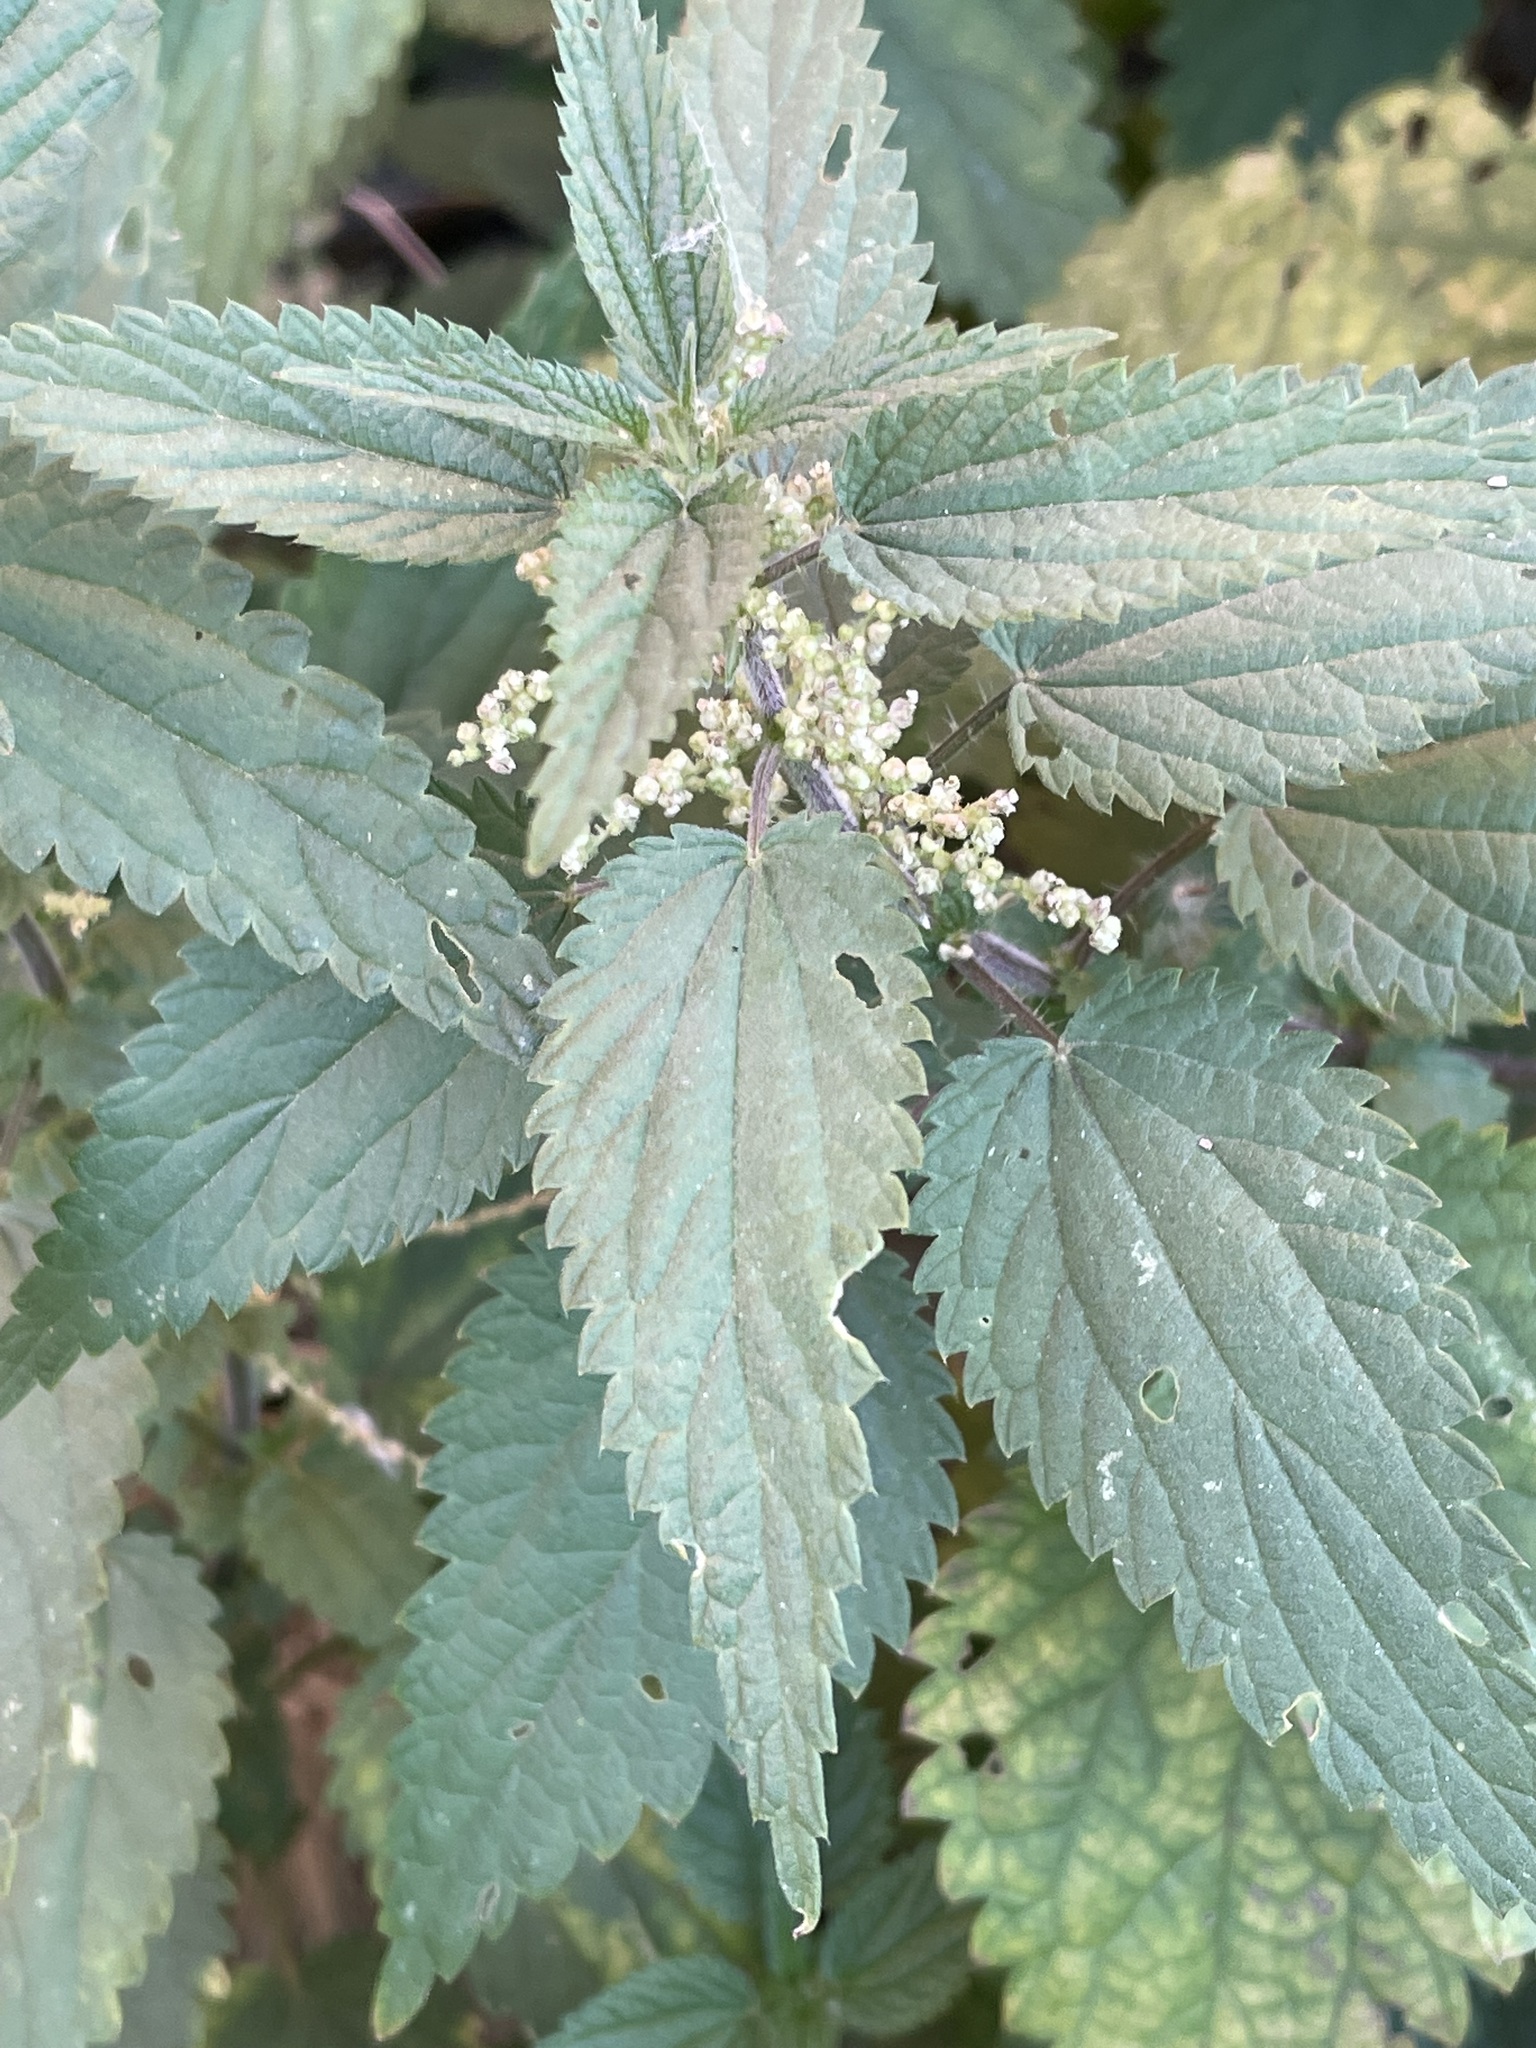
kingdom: Plantae
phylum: Tracheophyta
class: Magnoliopsida
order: Rosales
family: Urticaceae
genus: Urtica
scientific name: Urtica dioica
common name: Common nettle
